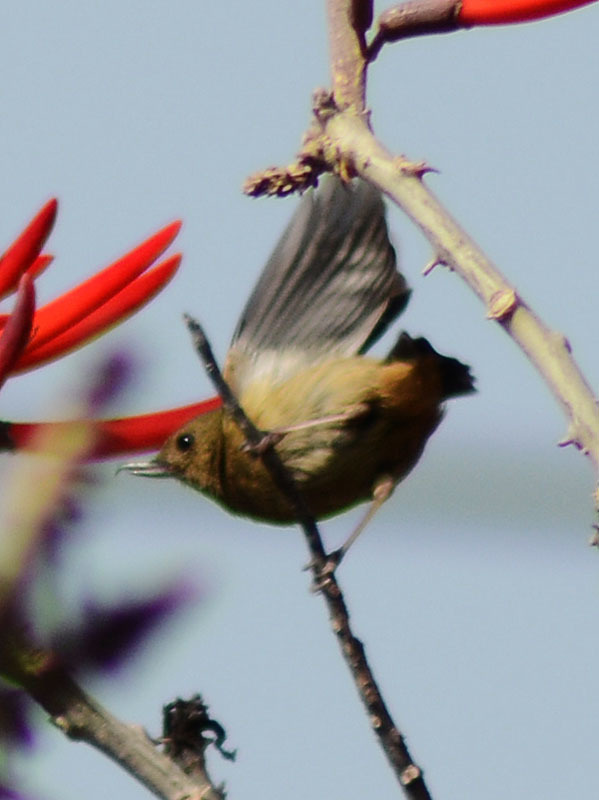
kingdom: Animalia
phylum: Chordata
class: Aves
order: Passeriformes
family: Thraupidae
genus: Diglossa
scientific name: Diglossa baritula
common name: Cinnamon-bellied flowerpiercer
